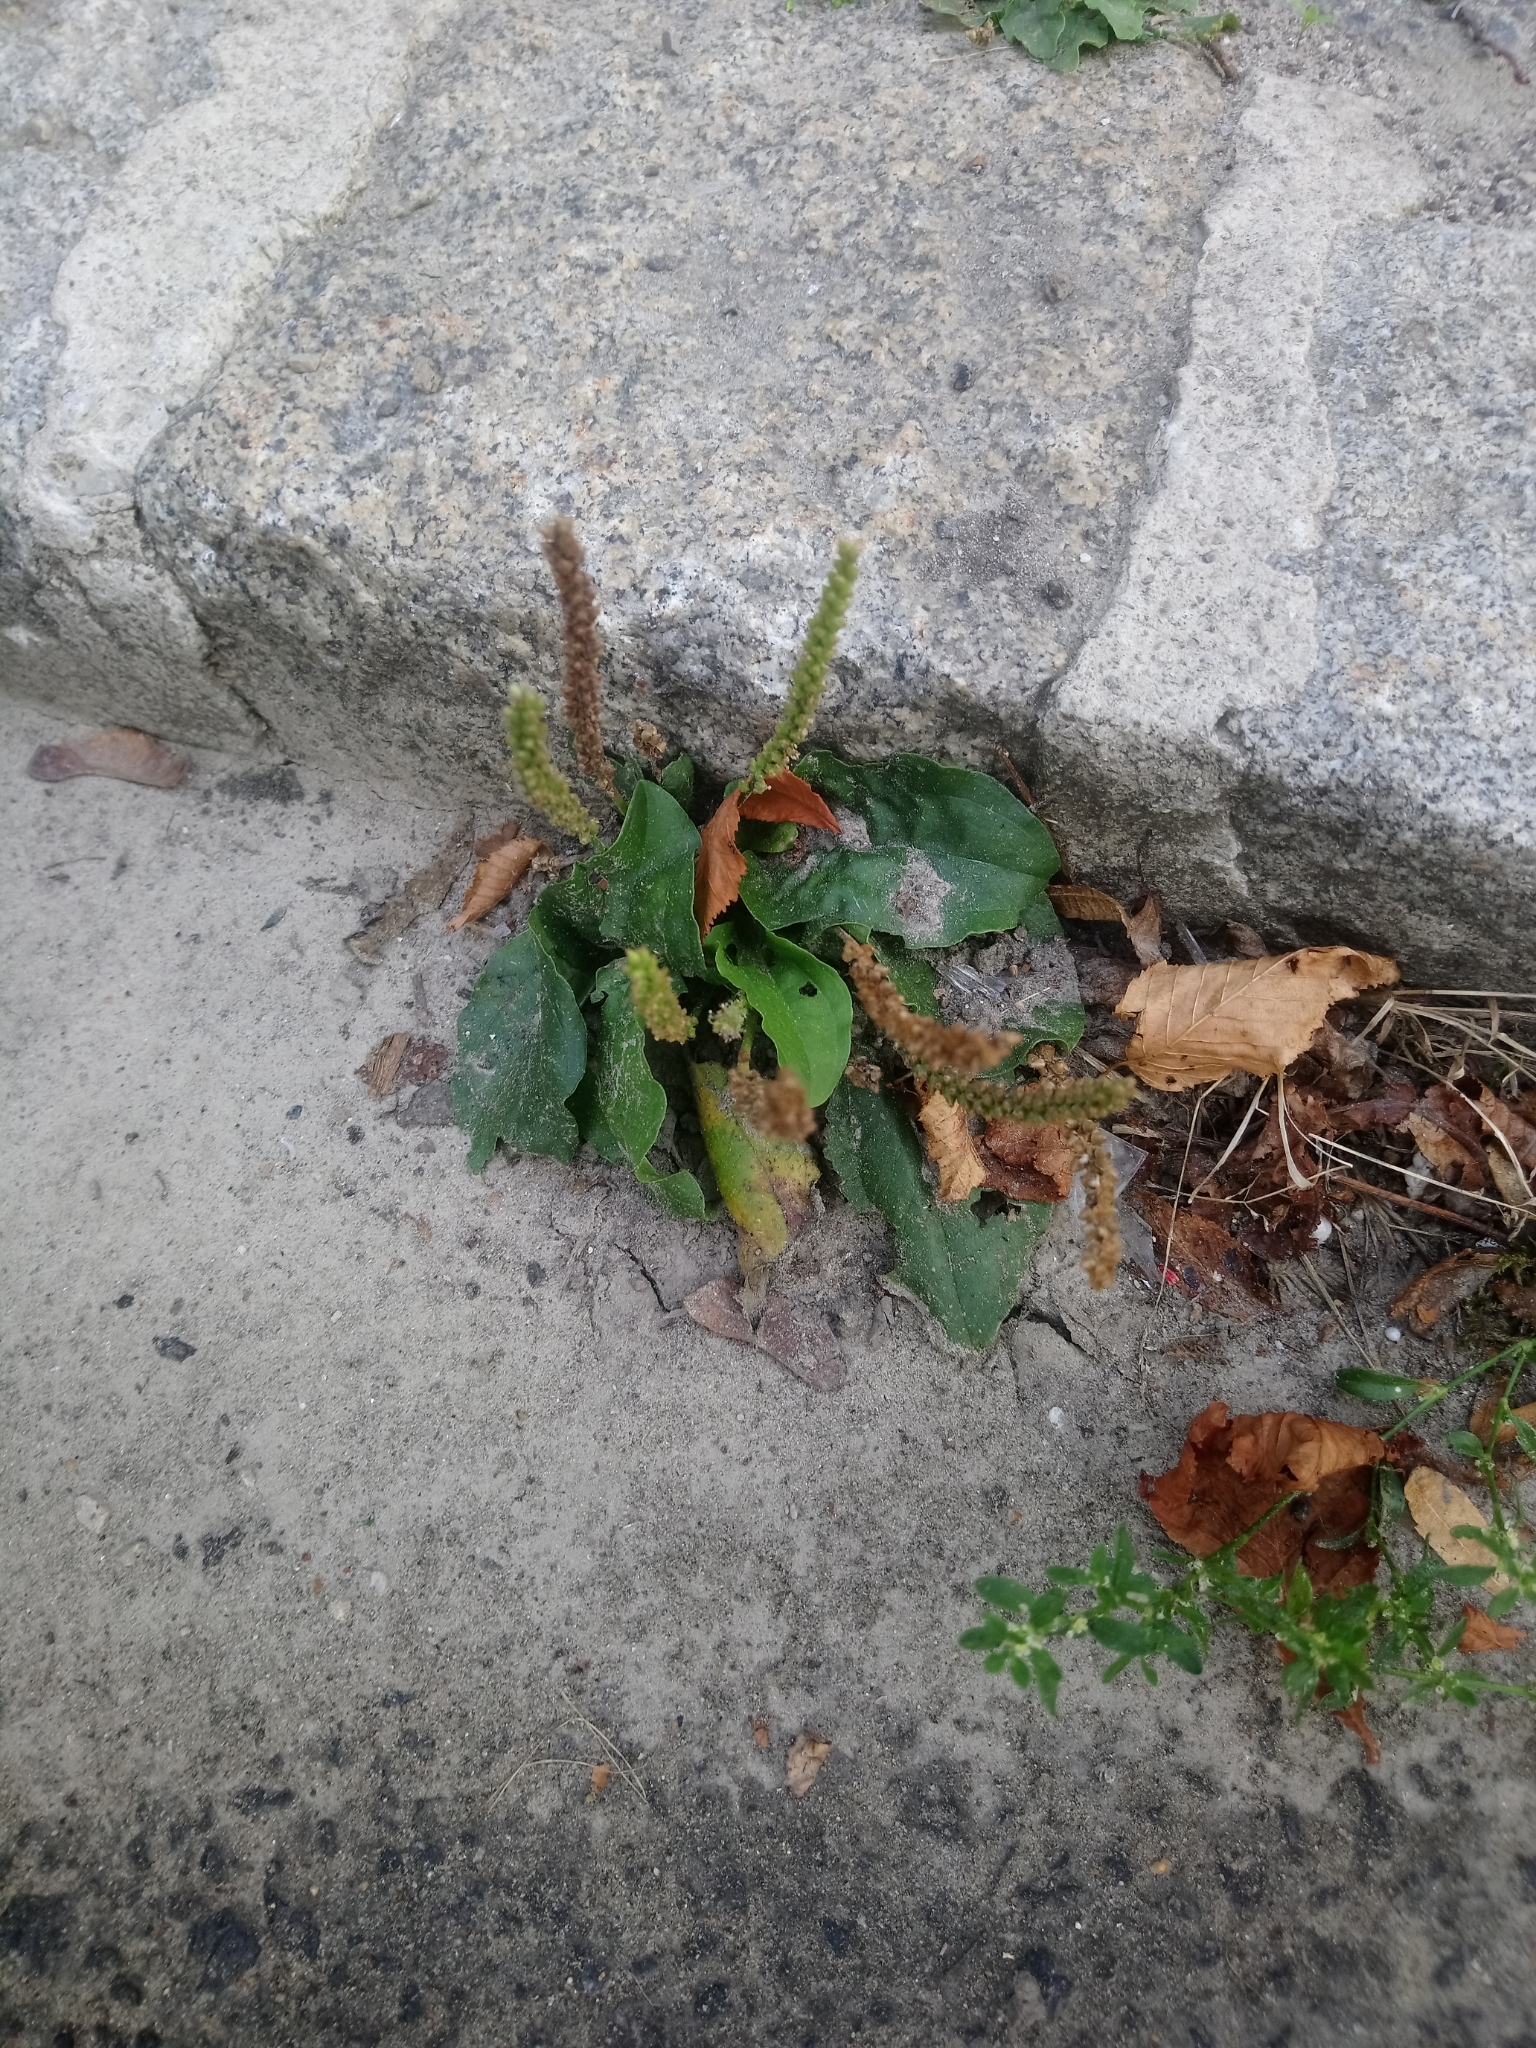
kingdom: Plantae
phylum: Tracheophyta
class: Magnoliopsida
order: Lamiales
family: Plantaginaceae
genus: Plantago
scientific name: Plantago major
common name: Common plantain
